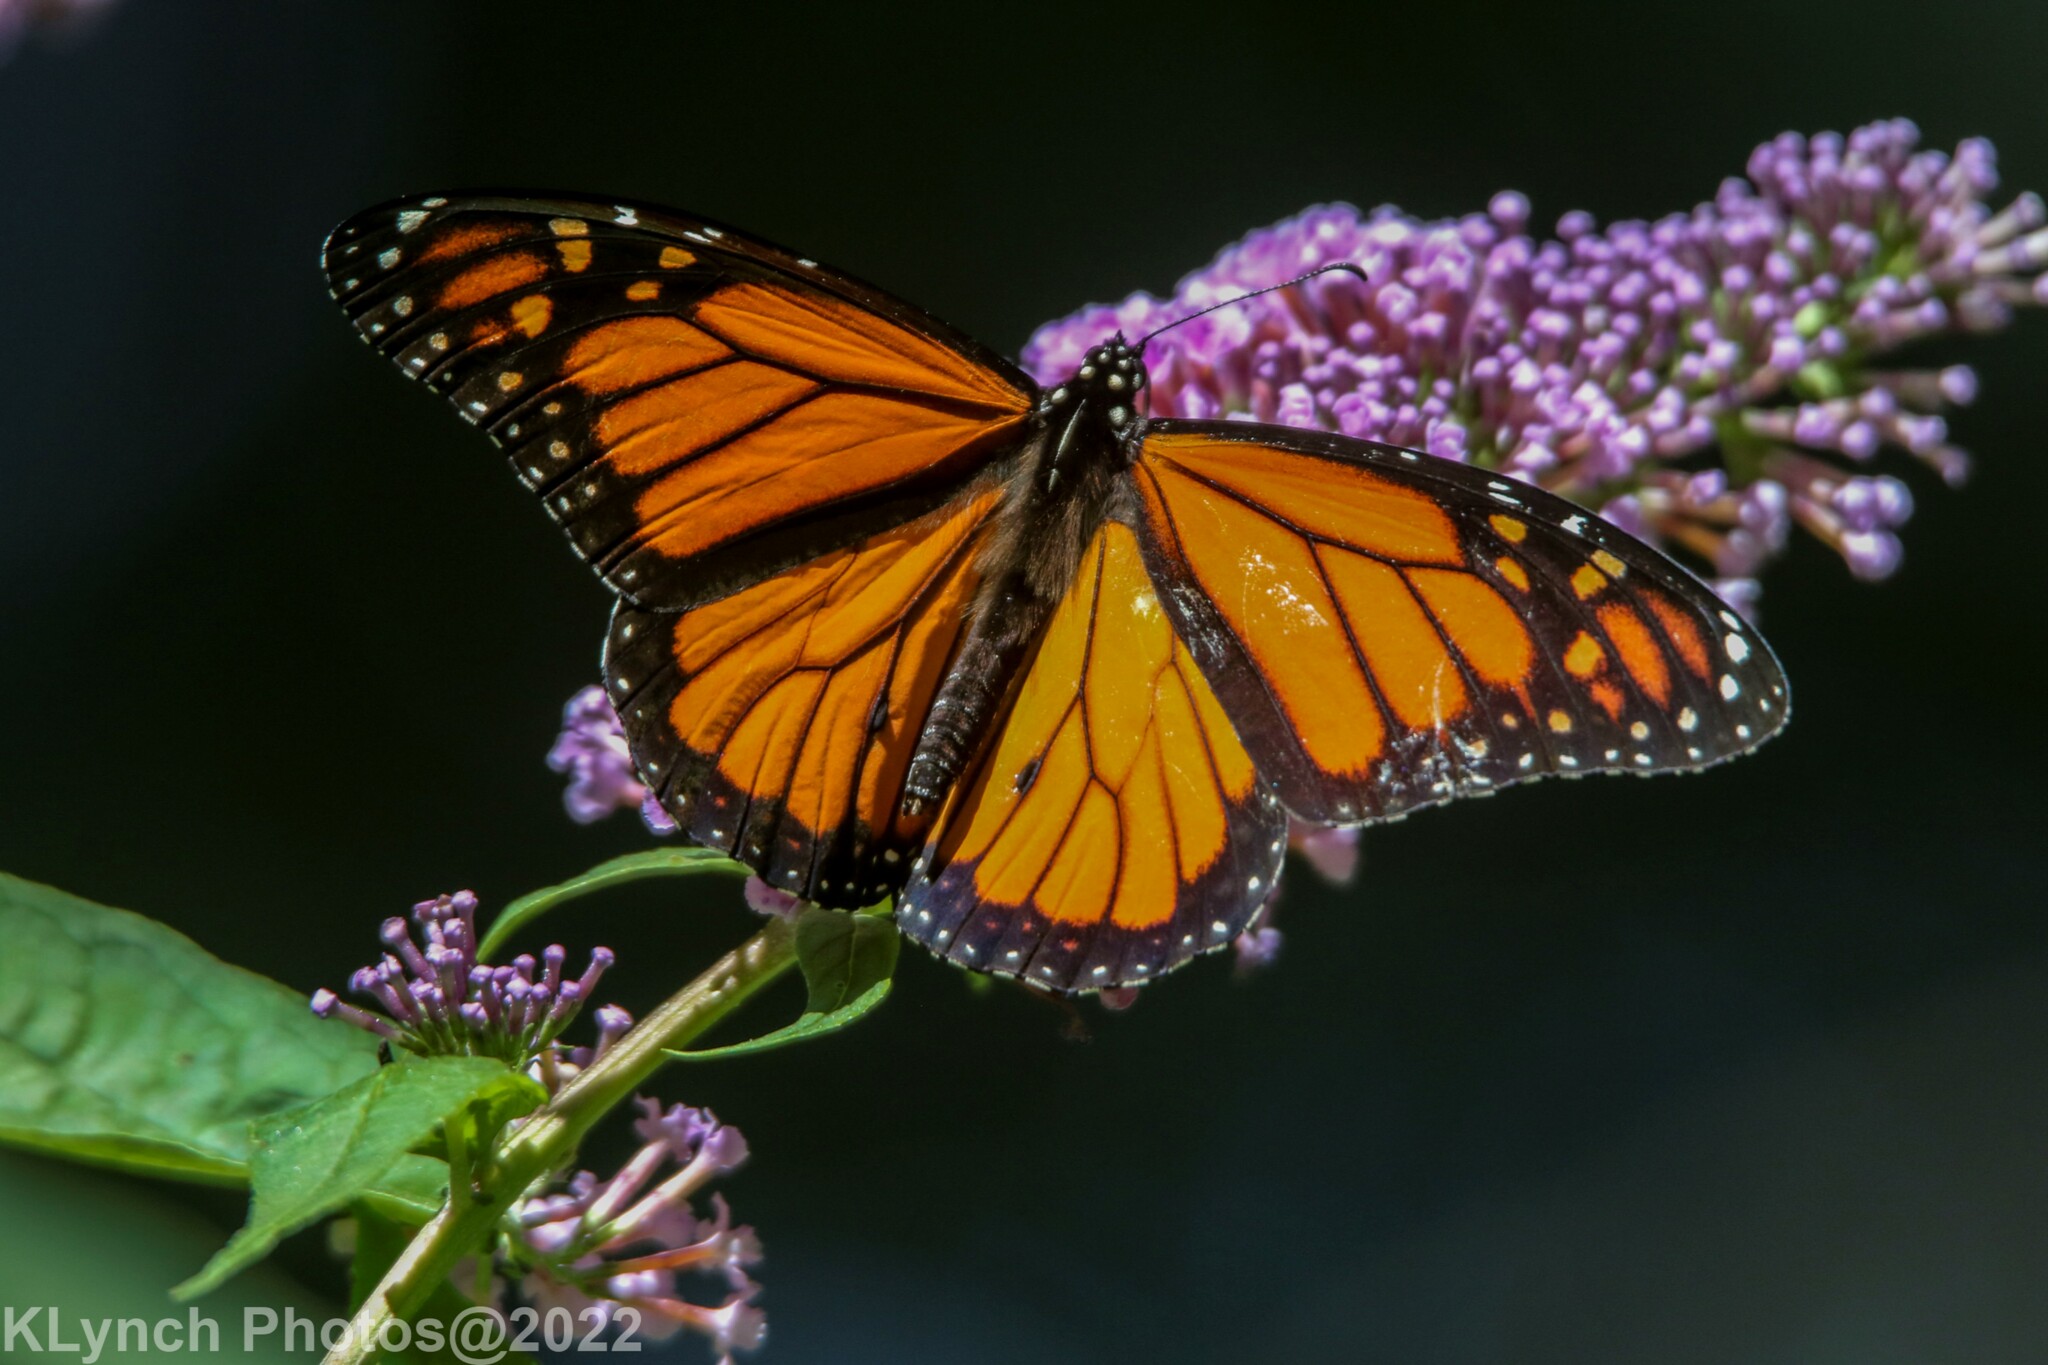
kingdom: Animalia
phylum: Arthropoda
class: Insecta
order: Lepidoptera
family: Nymphalidae
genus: Danaus
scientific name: Danaus plexippus
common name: Monarch
